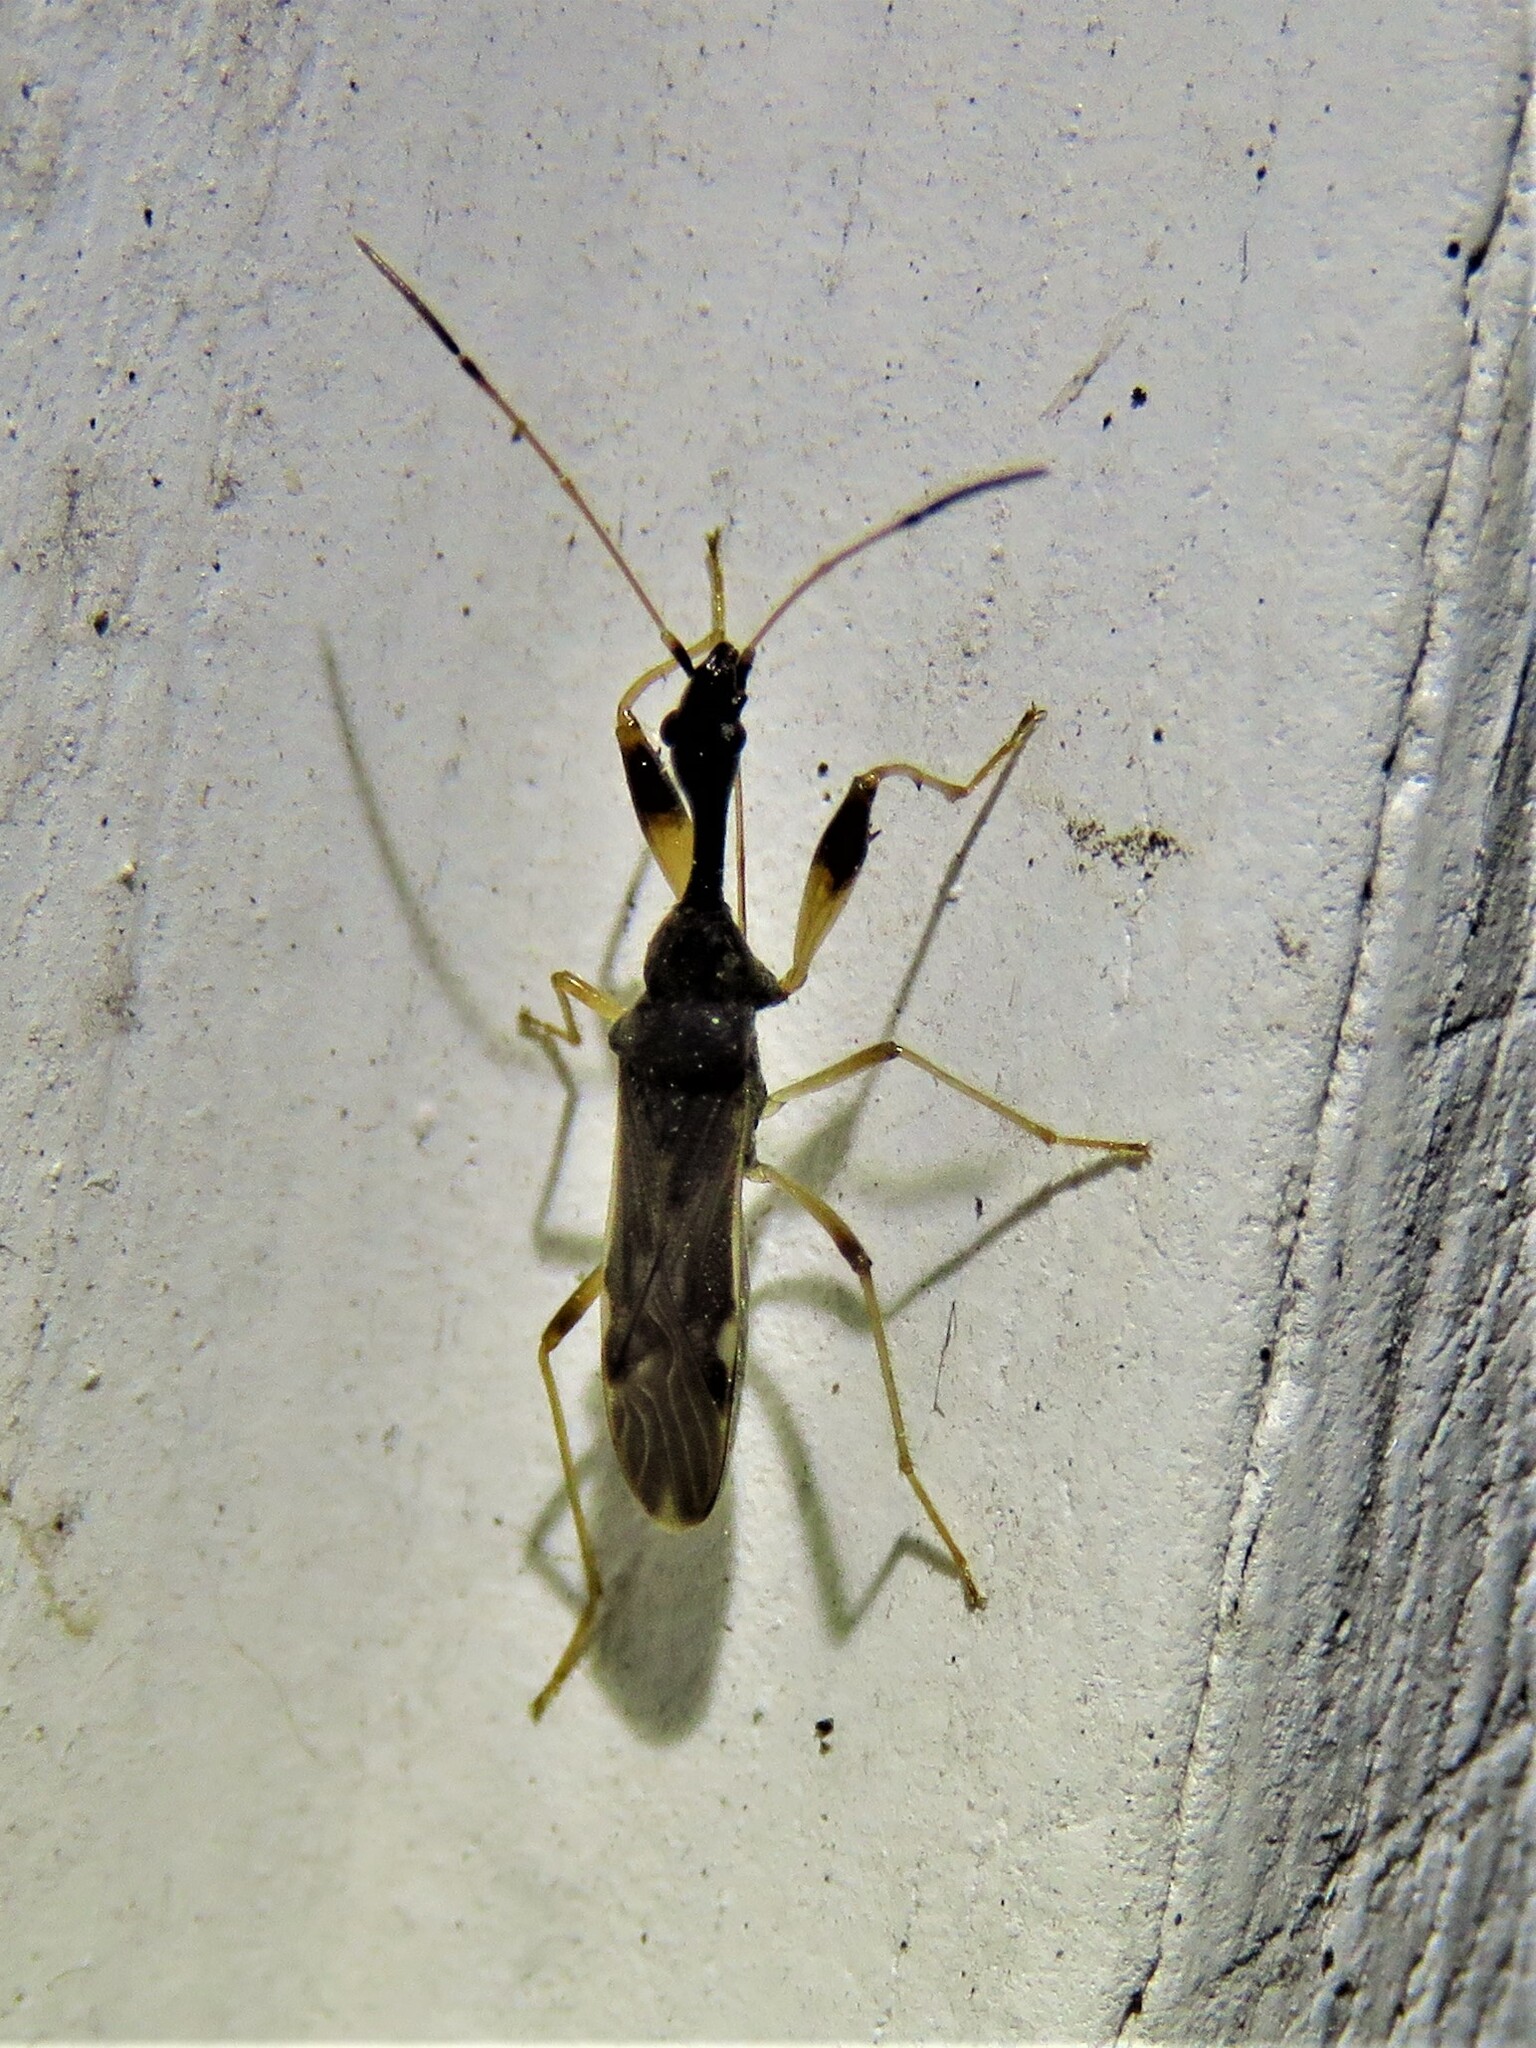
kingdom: Animalia
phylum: Arthropoda
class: Insecta
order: Hemiptera
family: Rhyparochromidae
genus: Myodocha
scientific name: Myodocha serripes
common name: Long-necked seed bug
